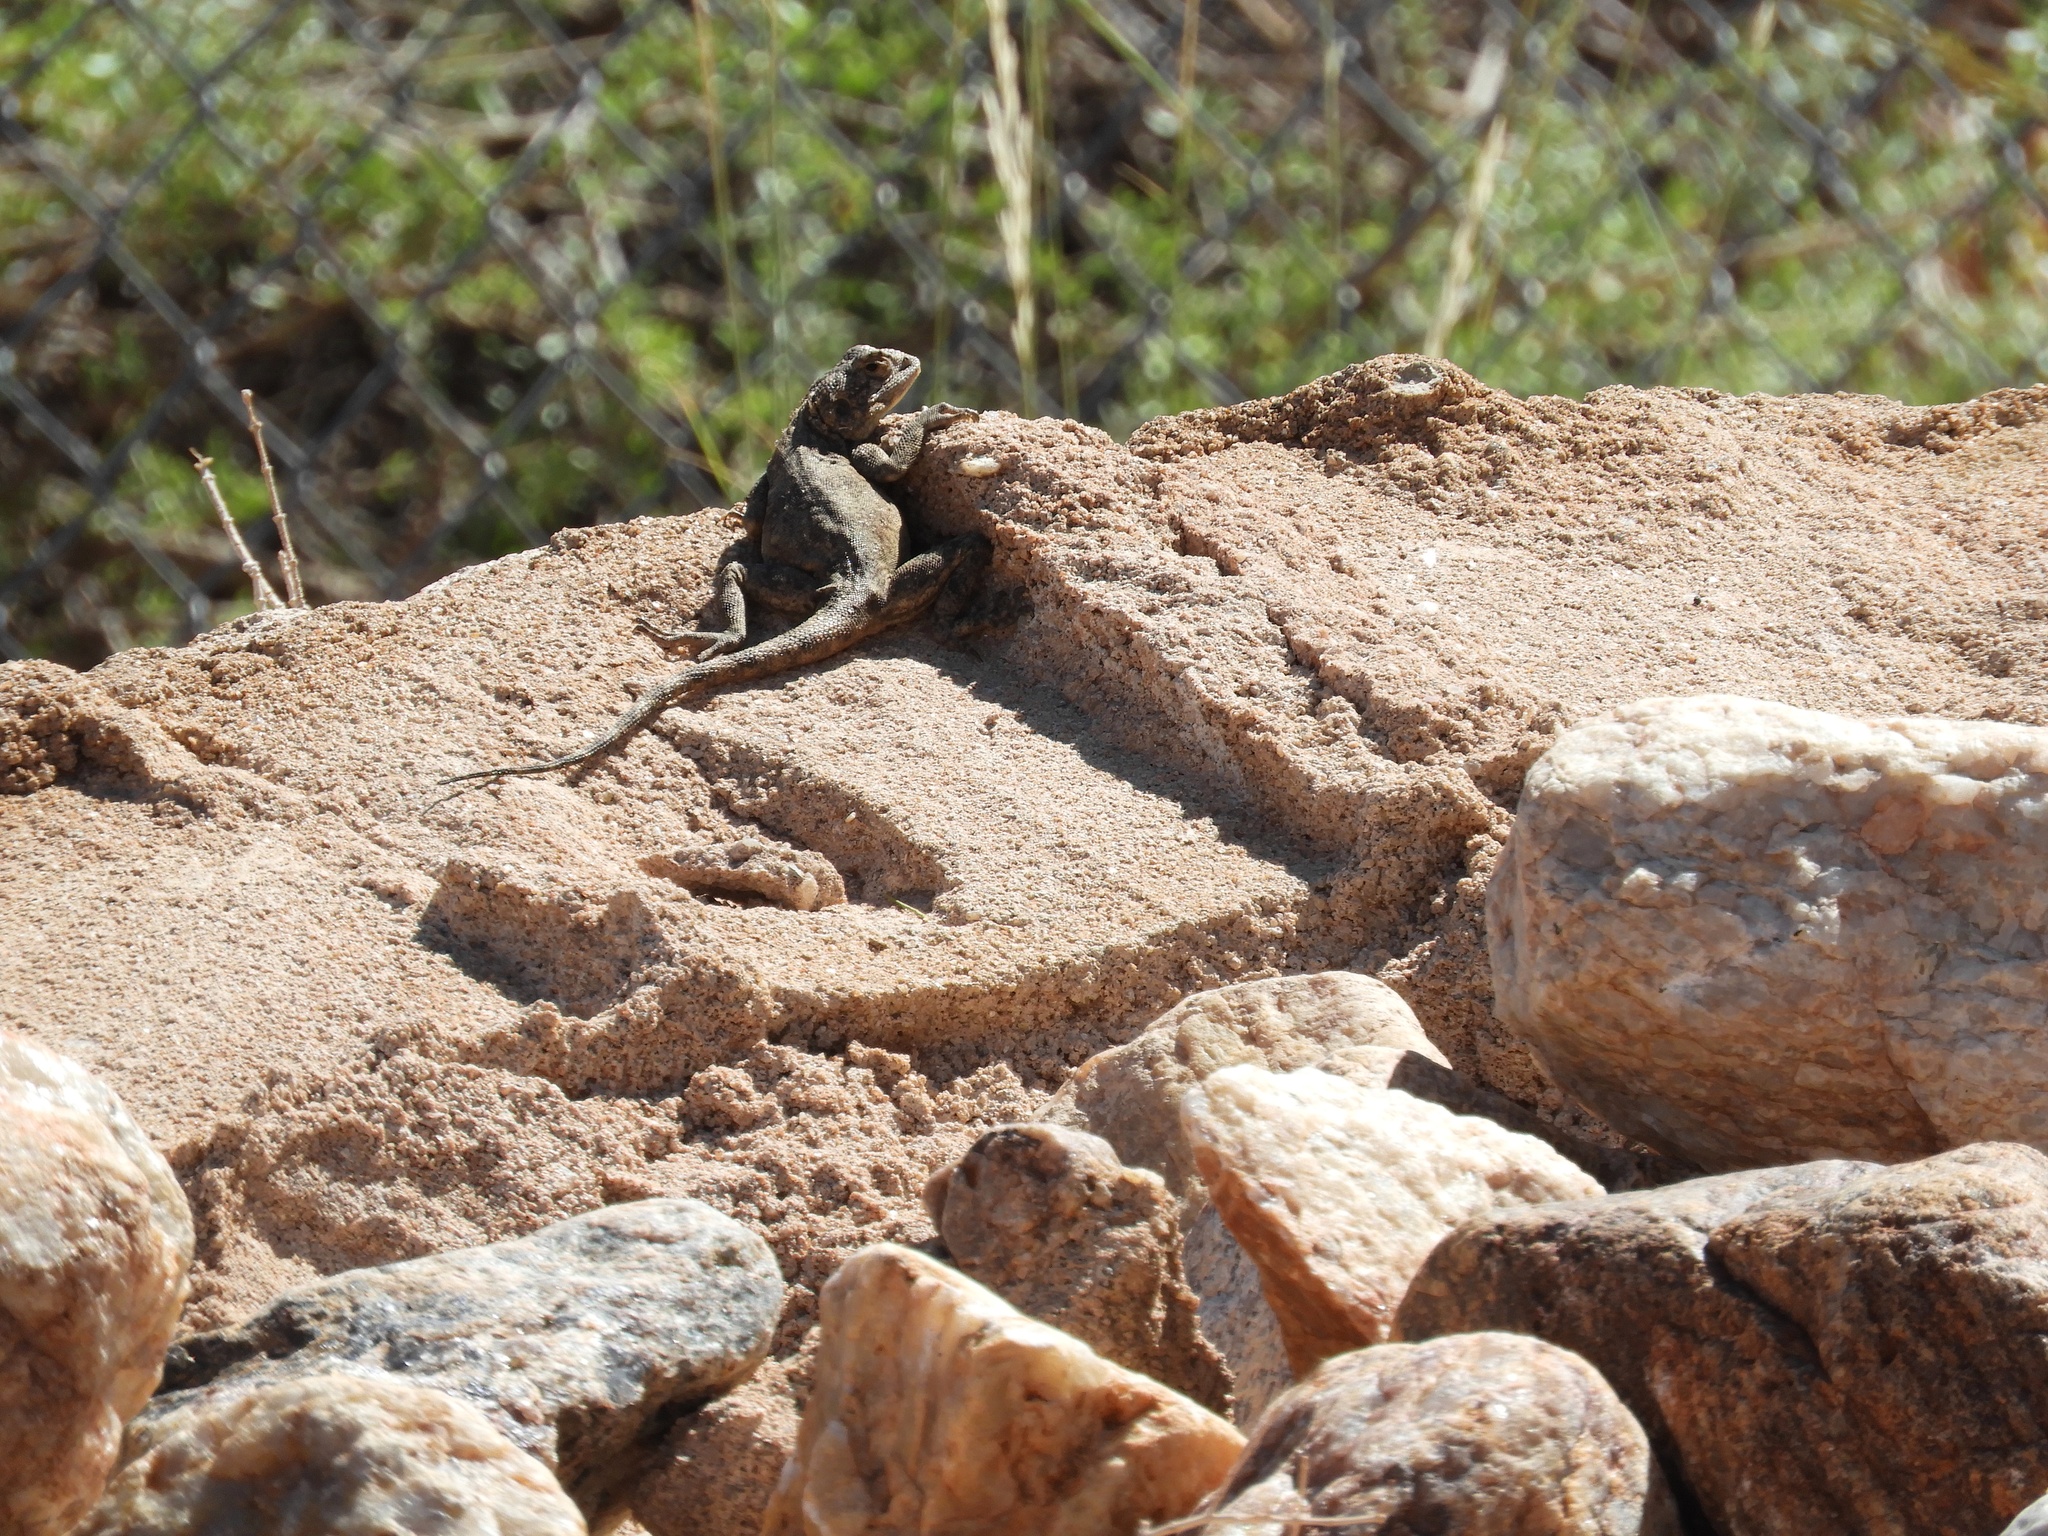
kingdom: Animalia
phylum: Chordata
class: Squamata
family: Agamidae
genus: Agama
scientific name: Agama atra
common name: Southern african rock agama
